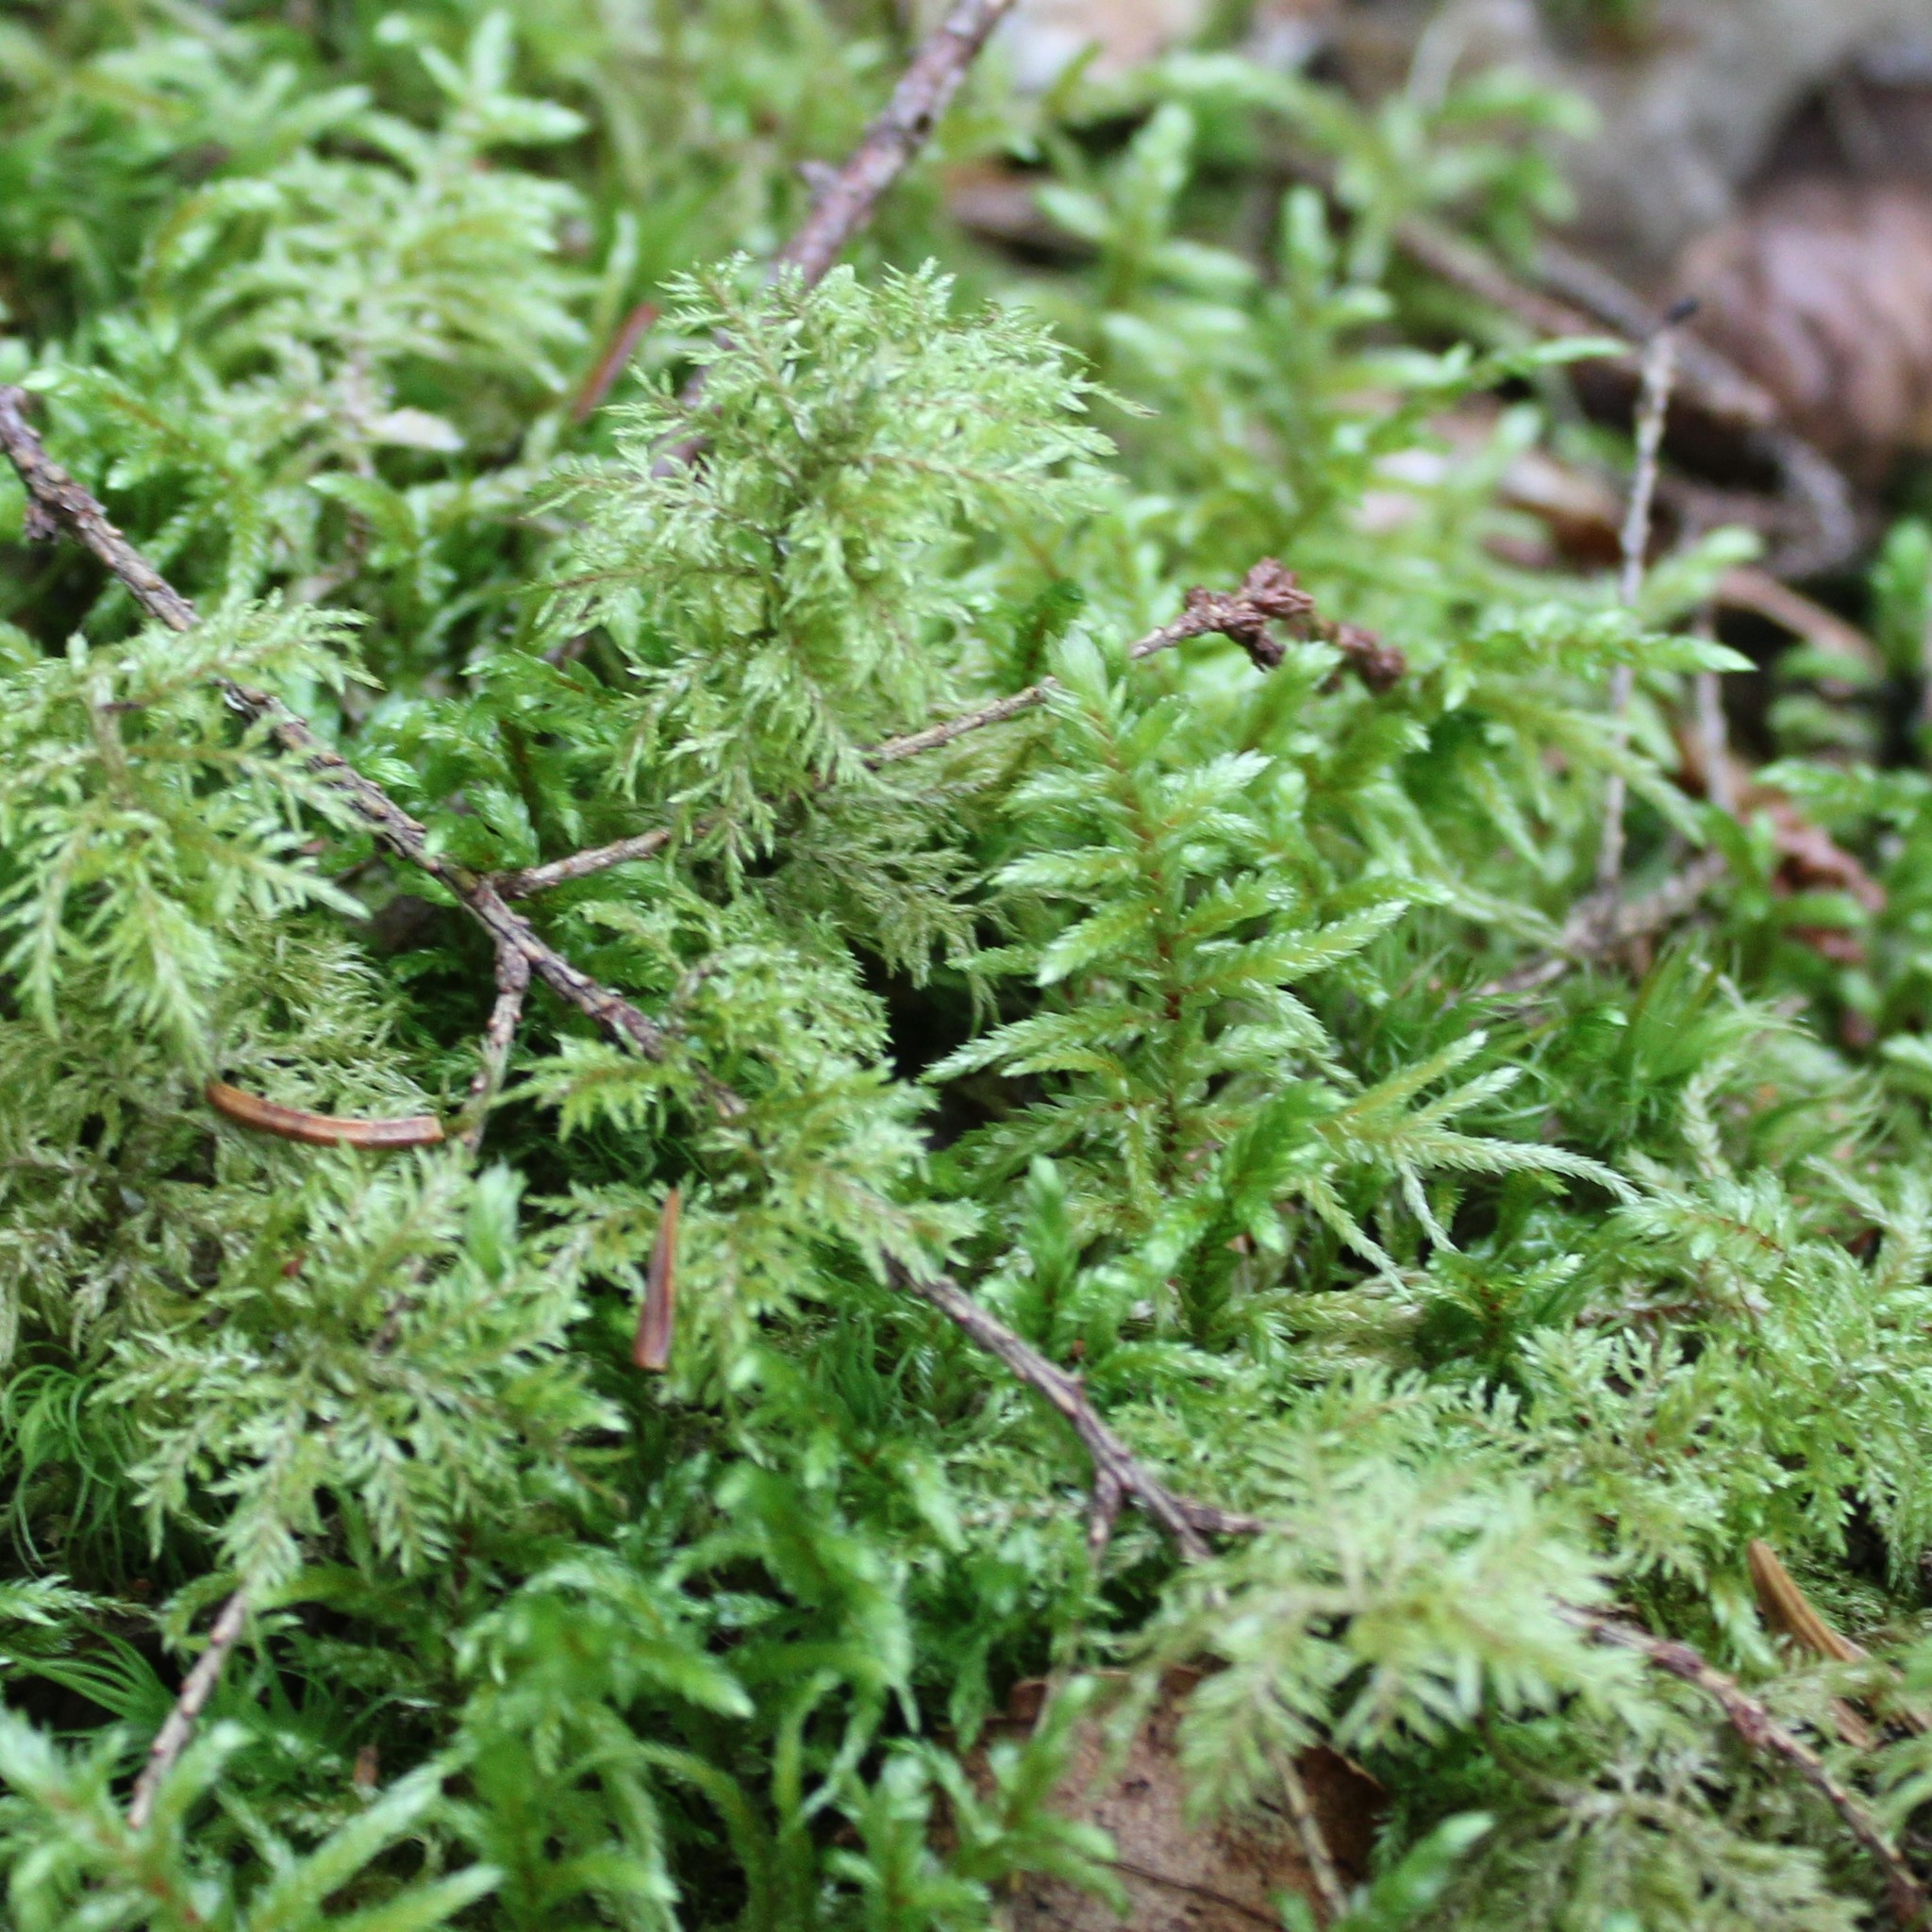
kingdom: Plantae
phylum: Bryophyta
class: Bryopsida
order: Hypnales
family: Hylocomiaceae
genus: Hylocomium
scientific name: Hylocomium splendens
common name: Stairstep moss
